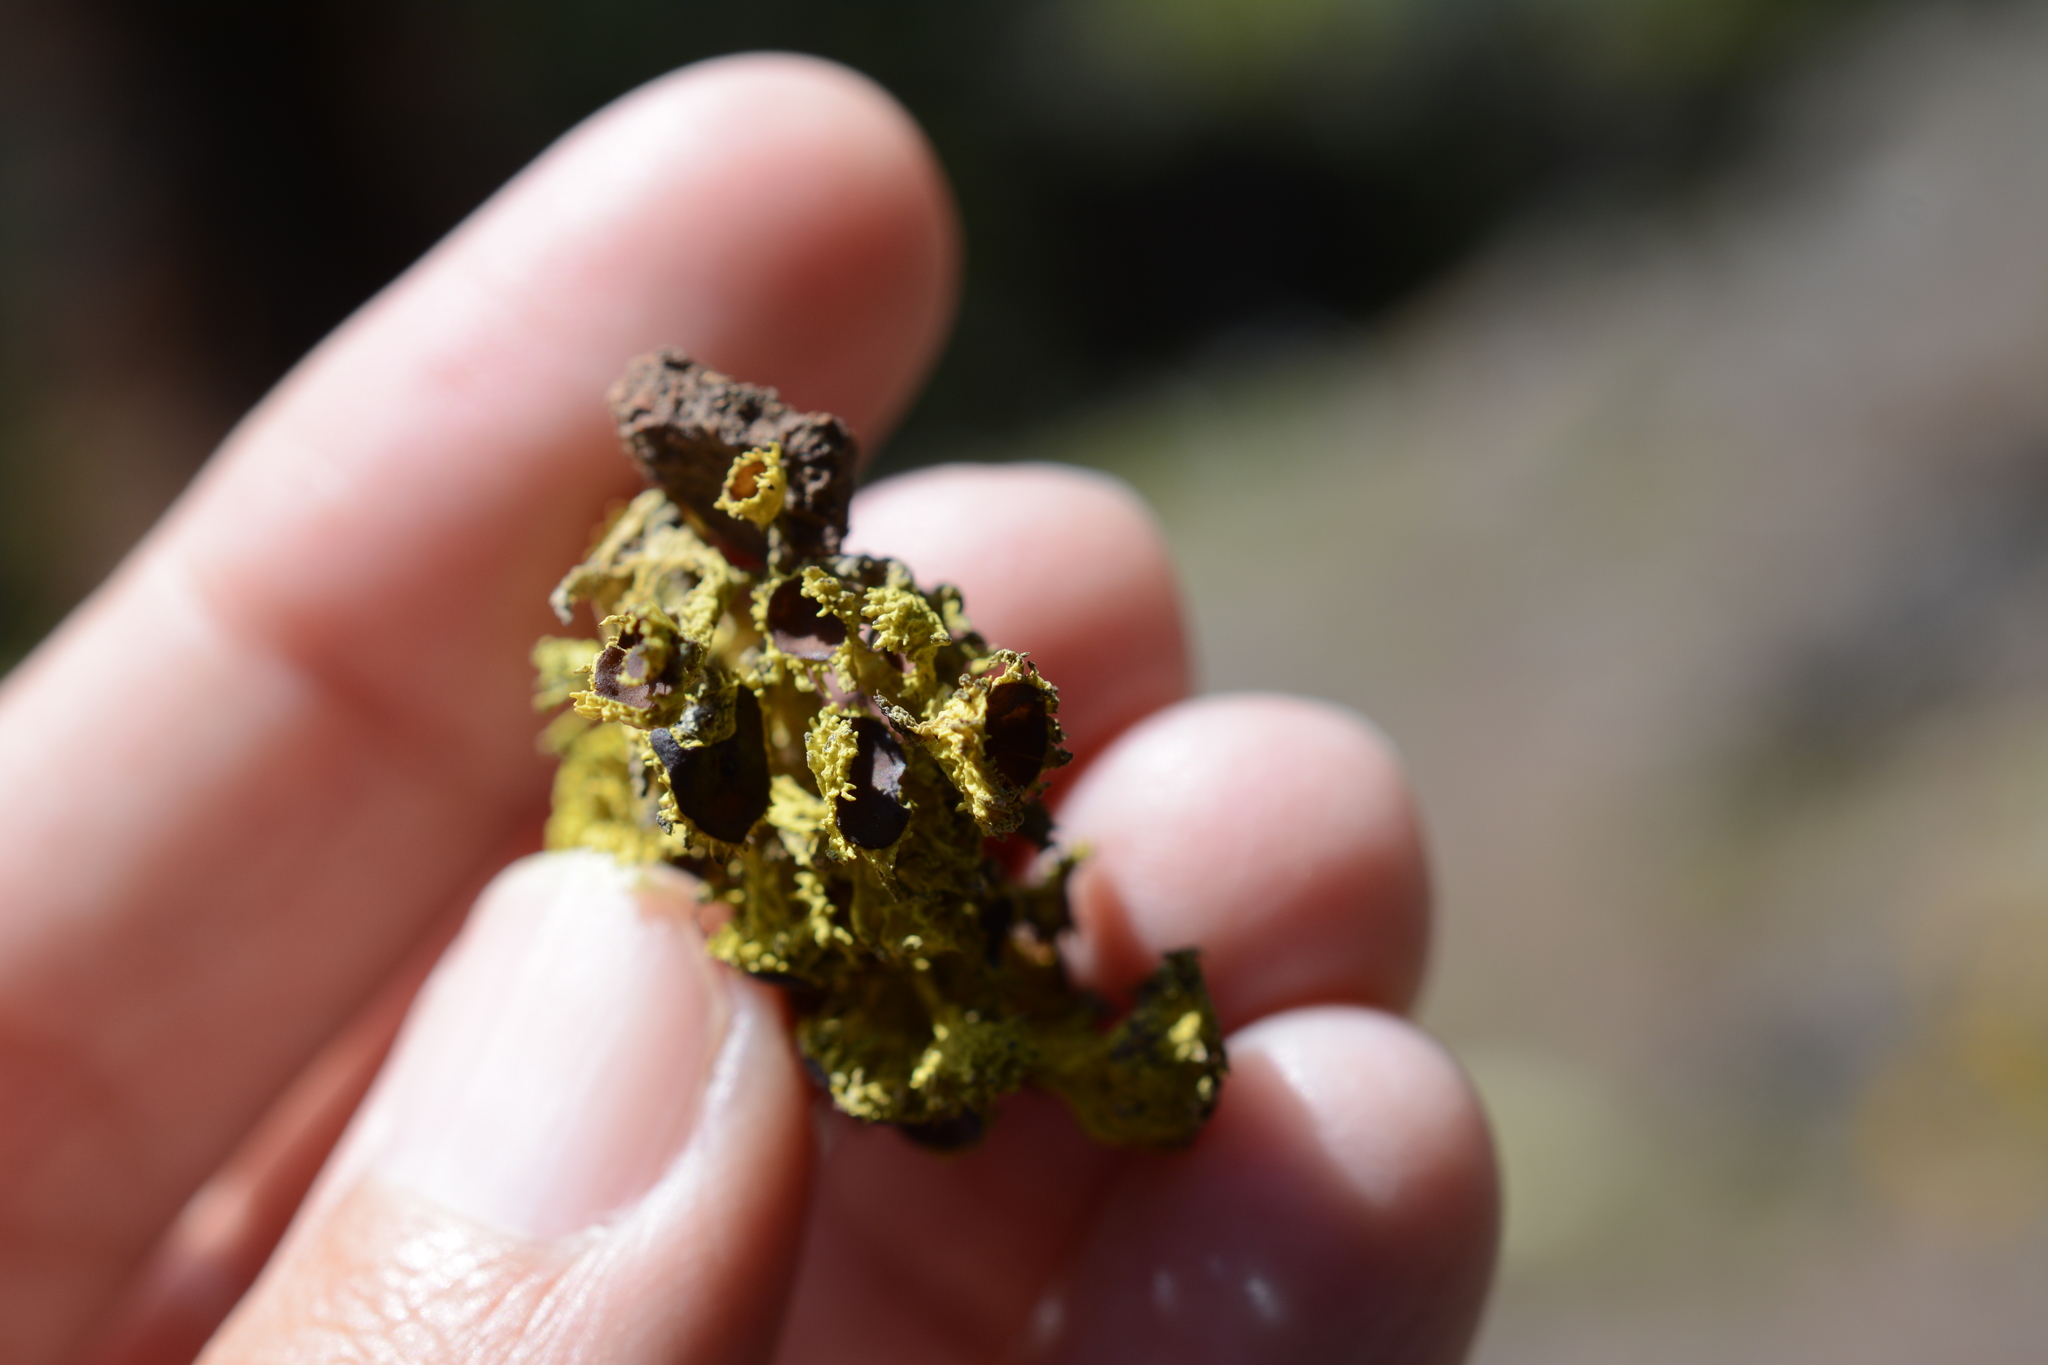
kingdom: Fungi
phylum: Ascomycota
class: Lecanoromycetes
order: Lecanorales
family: Parmeliaceae
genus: Letharia
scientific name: Letharia columbiana
